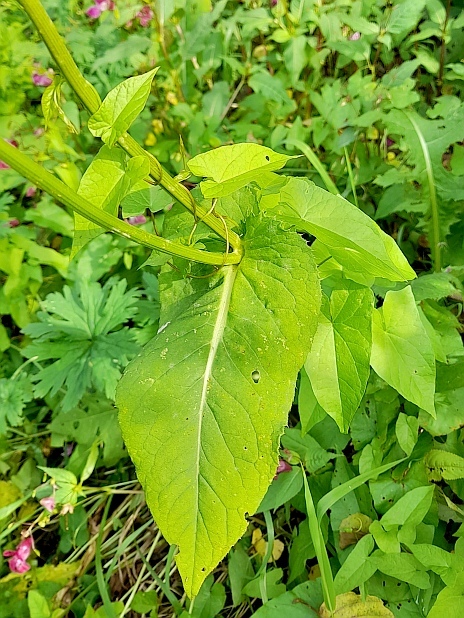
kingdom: Plantae
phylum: Tracheophyta
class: Magnoliopsida
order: Asterales
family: Asteraceae
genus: Cirsium
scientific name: Cirsium oleraceum
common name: Cabbage thistle
